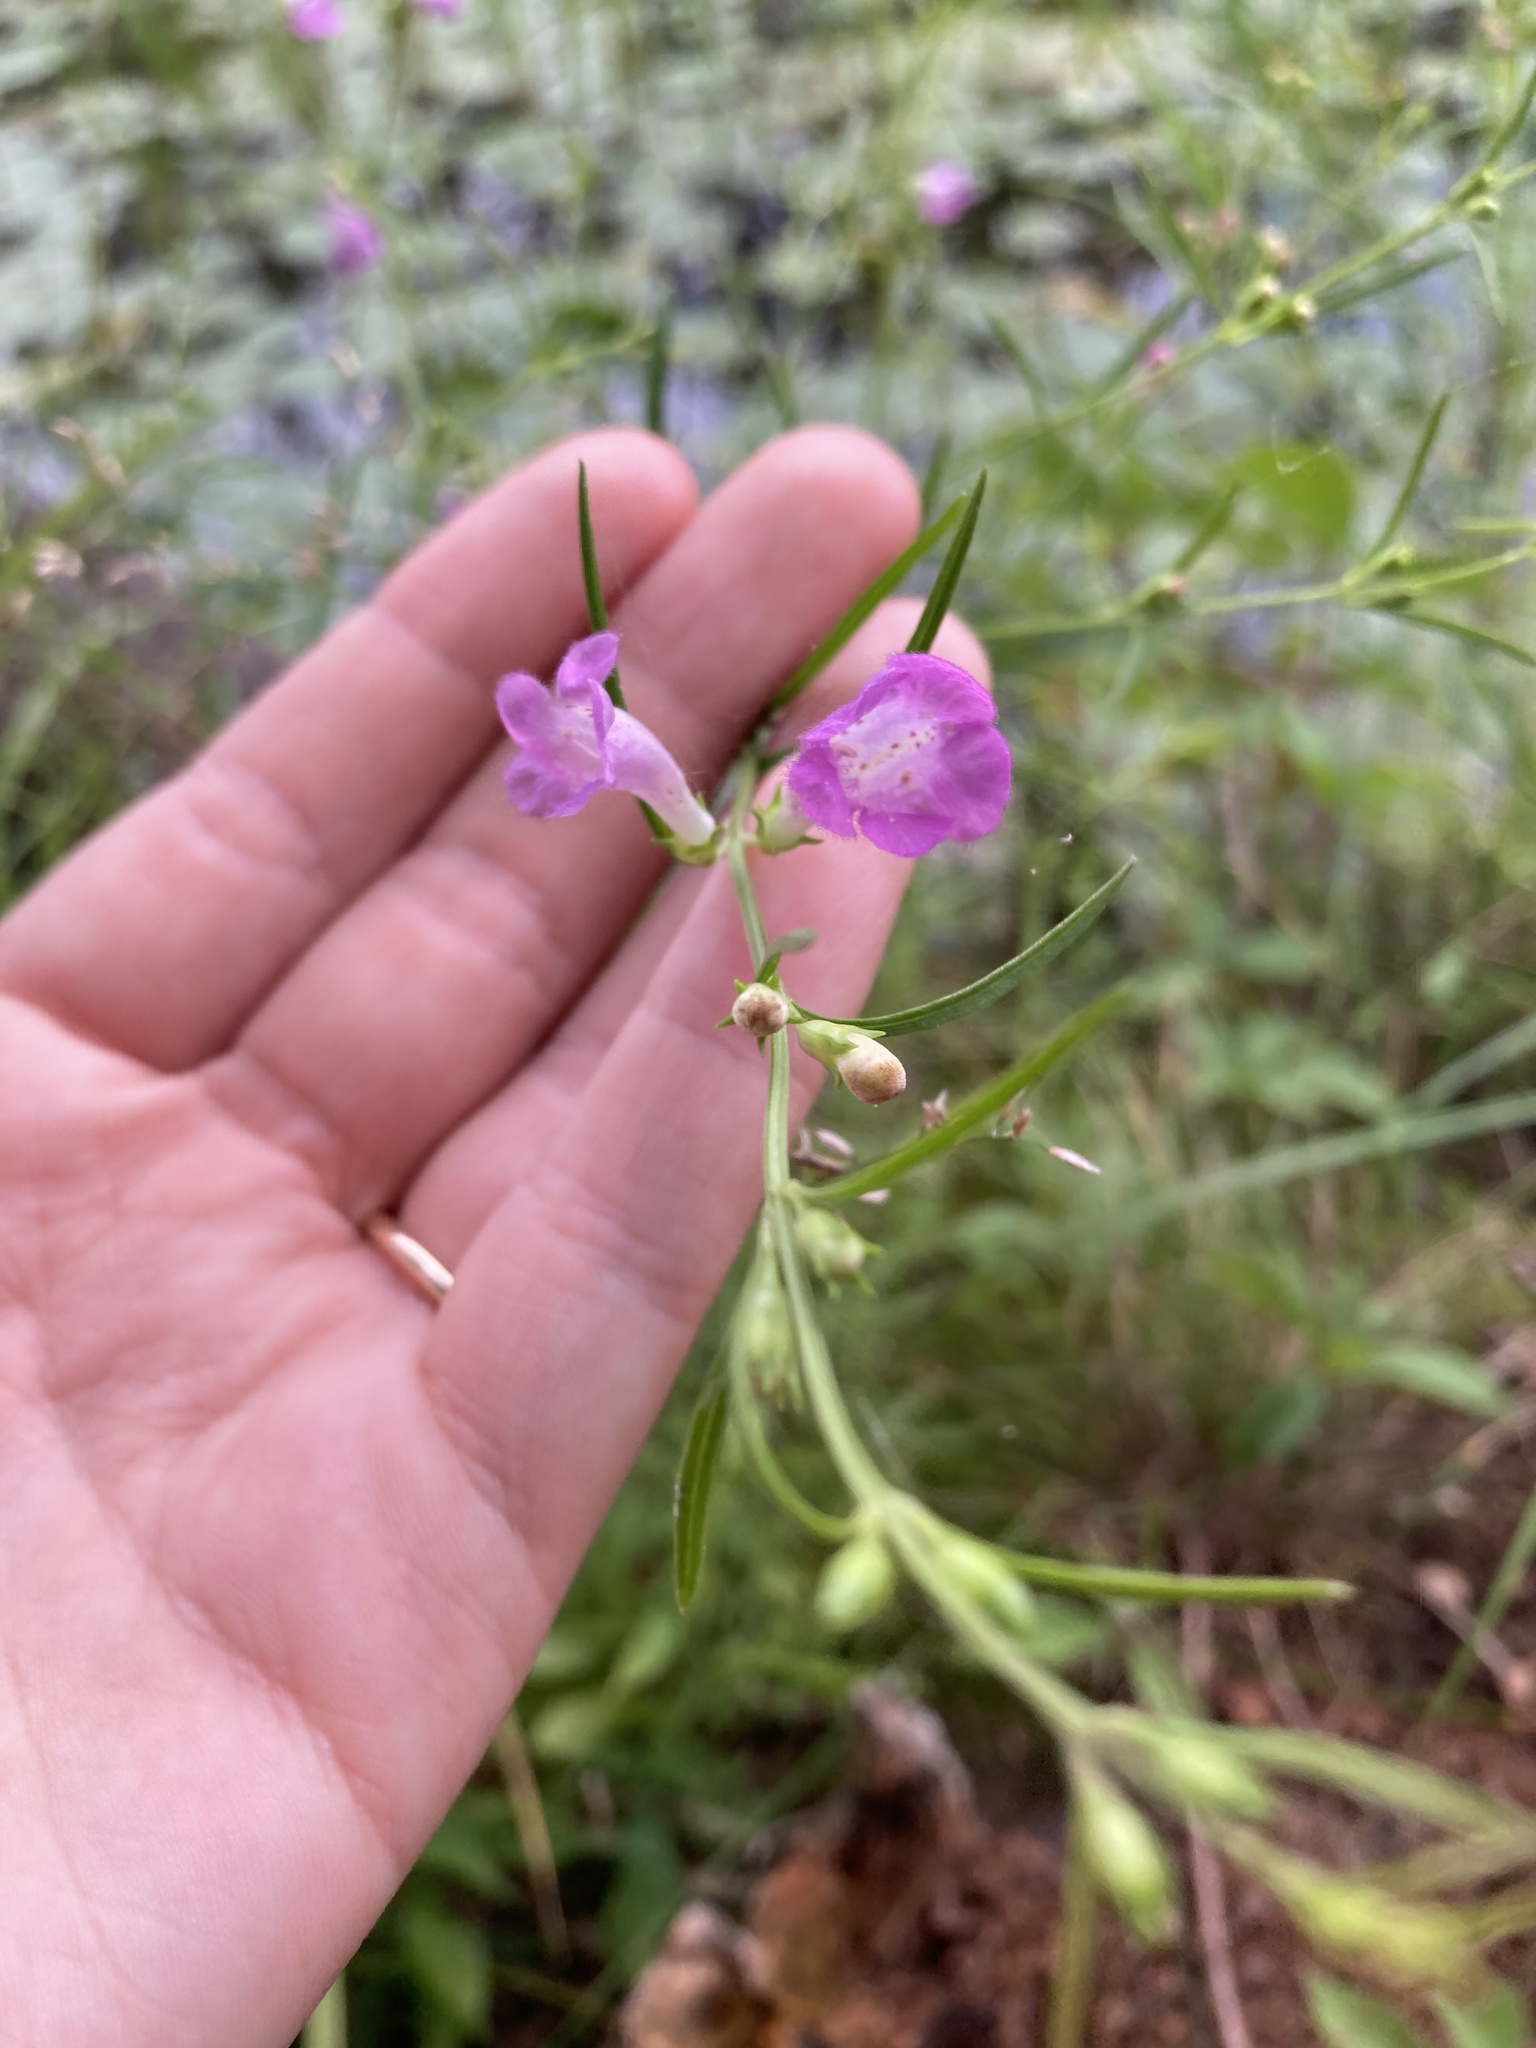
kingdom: Plantae
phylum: Tracheophyta
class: Magnoliopsida
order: Lamiales
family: Orobanchaceae
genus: Agalinis
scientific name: Agalinis purpurea
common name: Purple false foxglove
